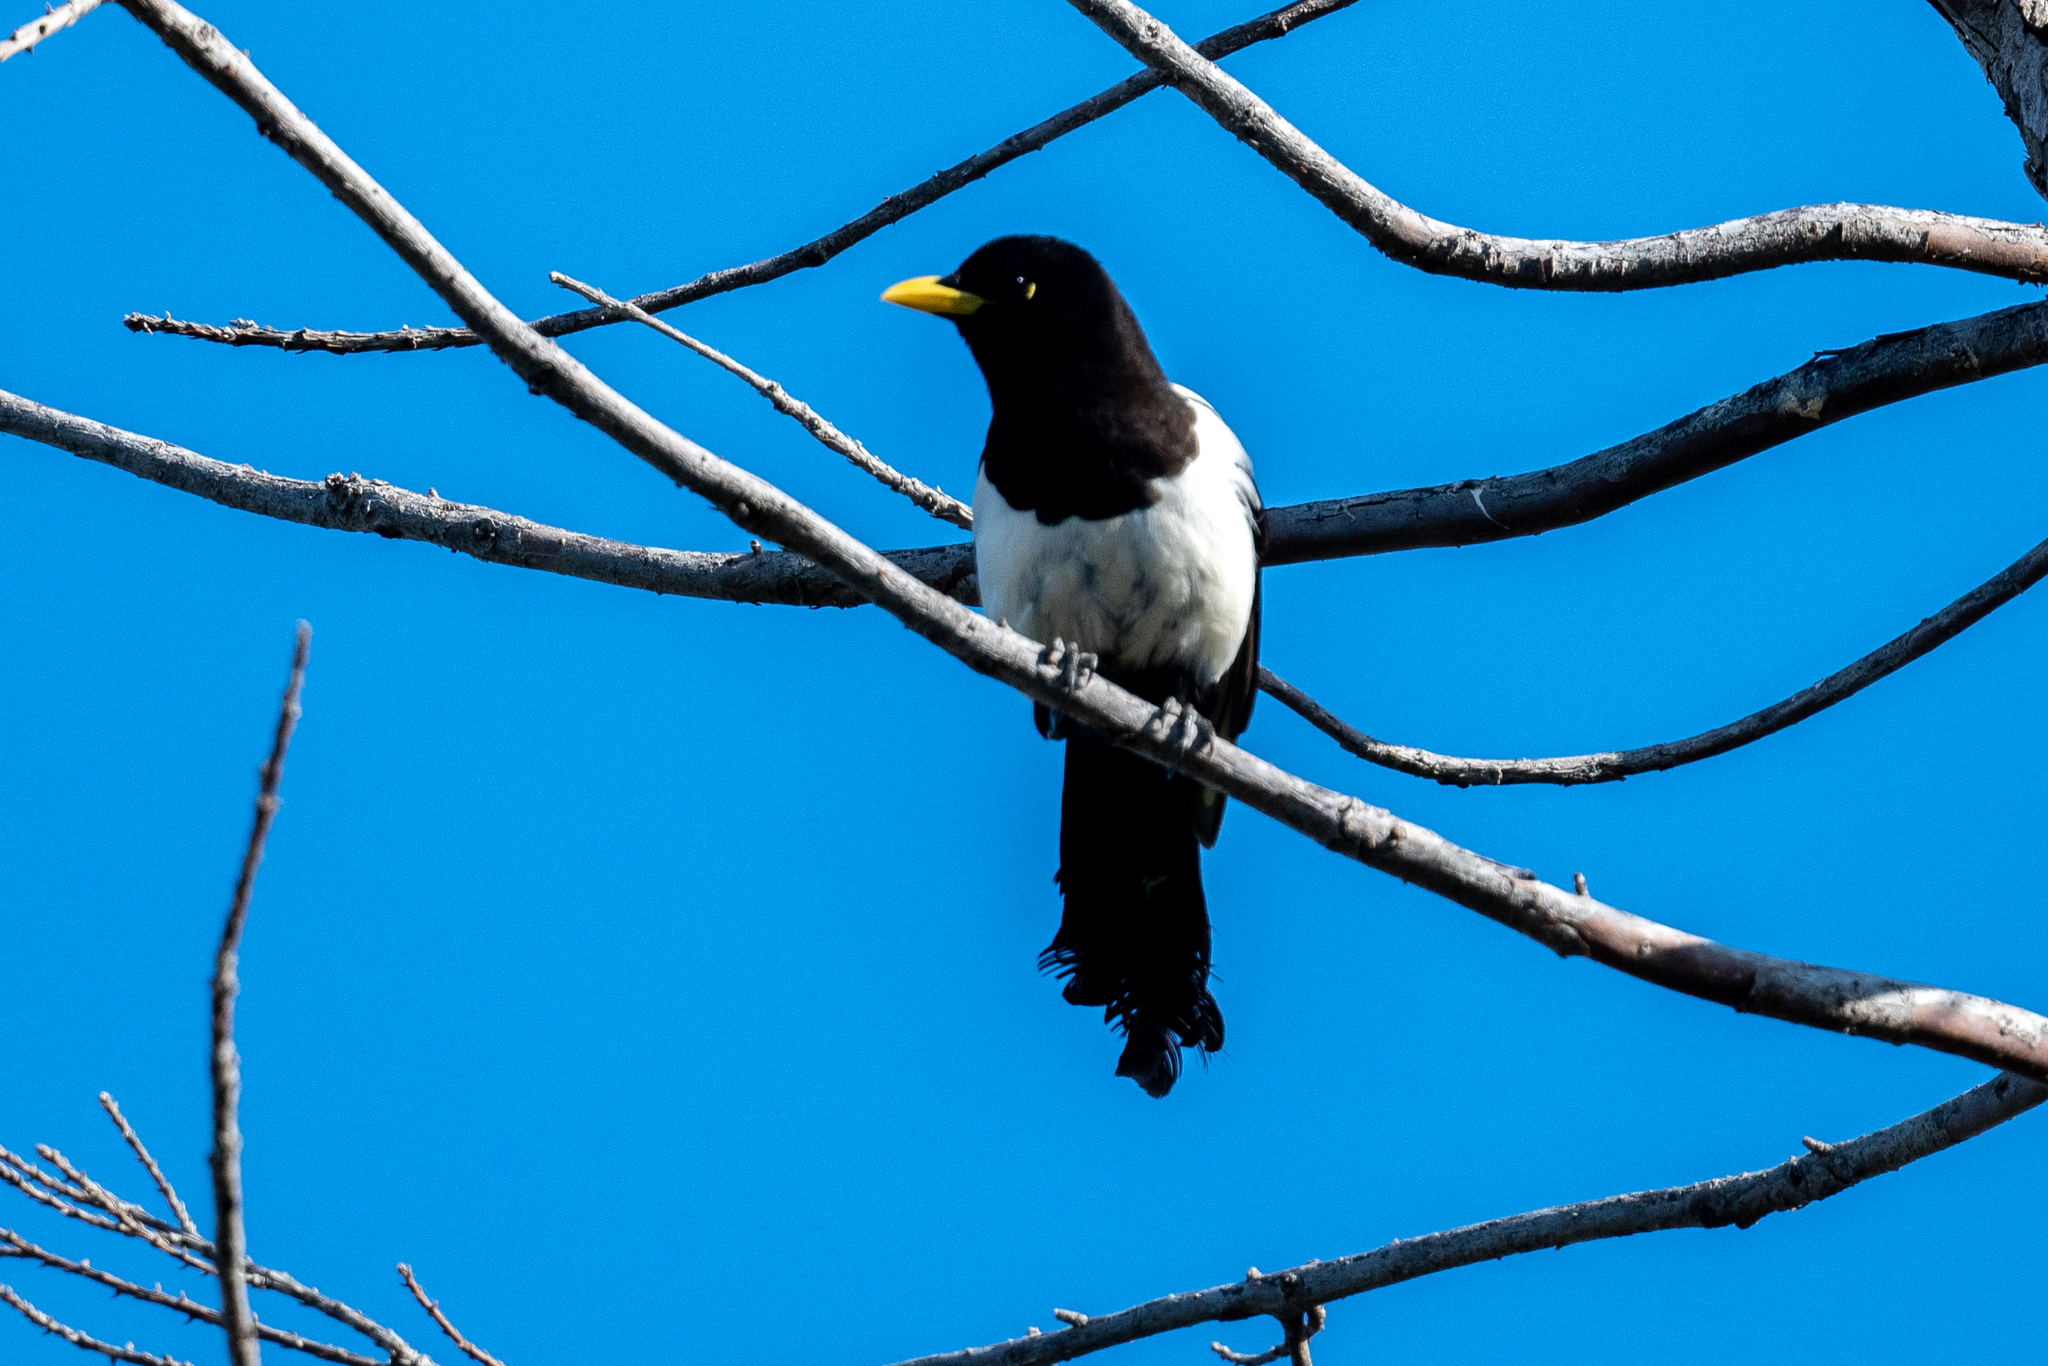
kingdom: Animalia
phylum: Chordata
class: Aves
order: Passeriformes
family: Corvidae
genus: Pica
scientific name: Pica nuttalli
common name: Yellow-billed magpie
